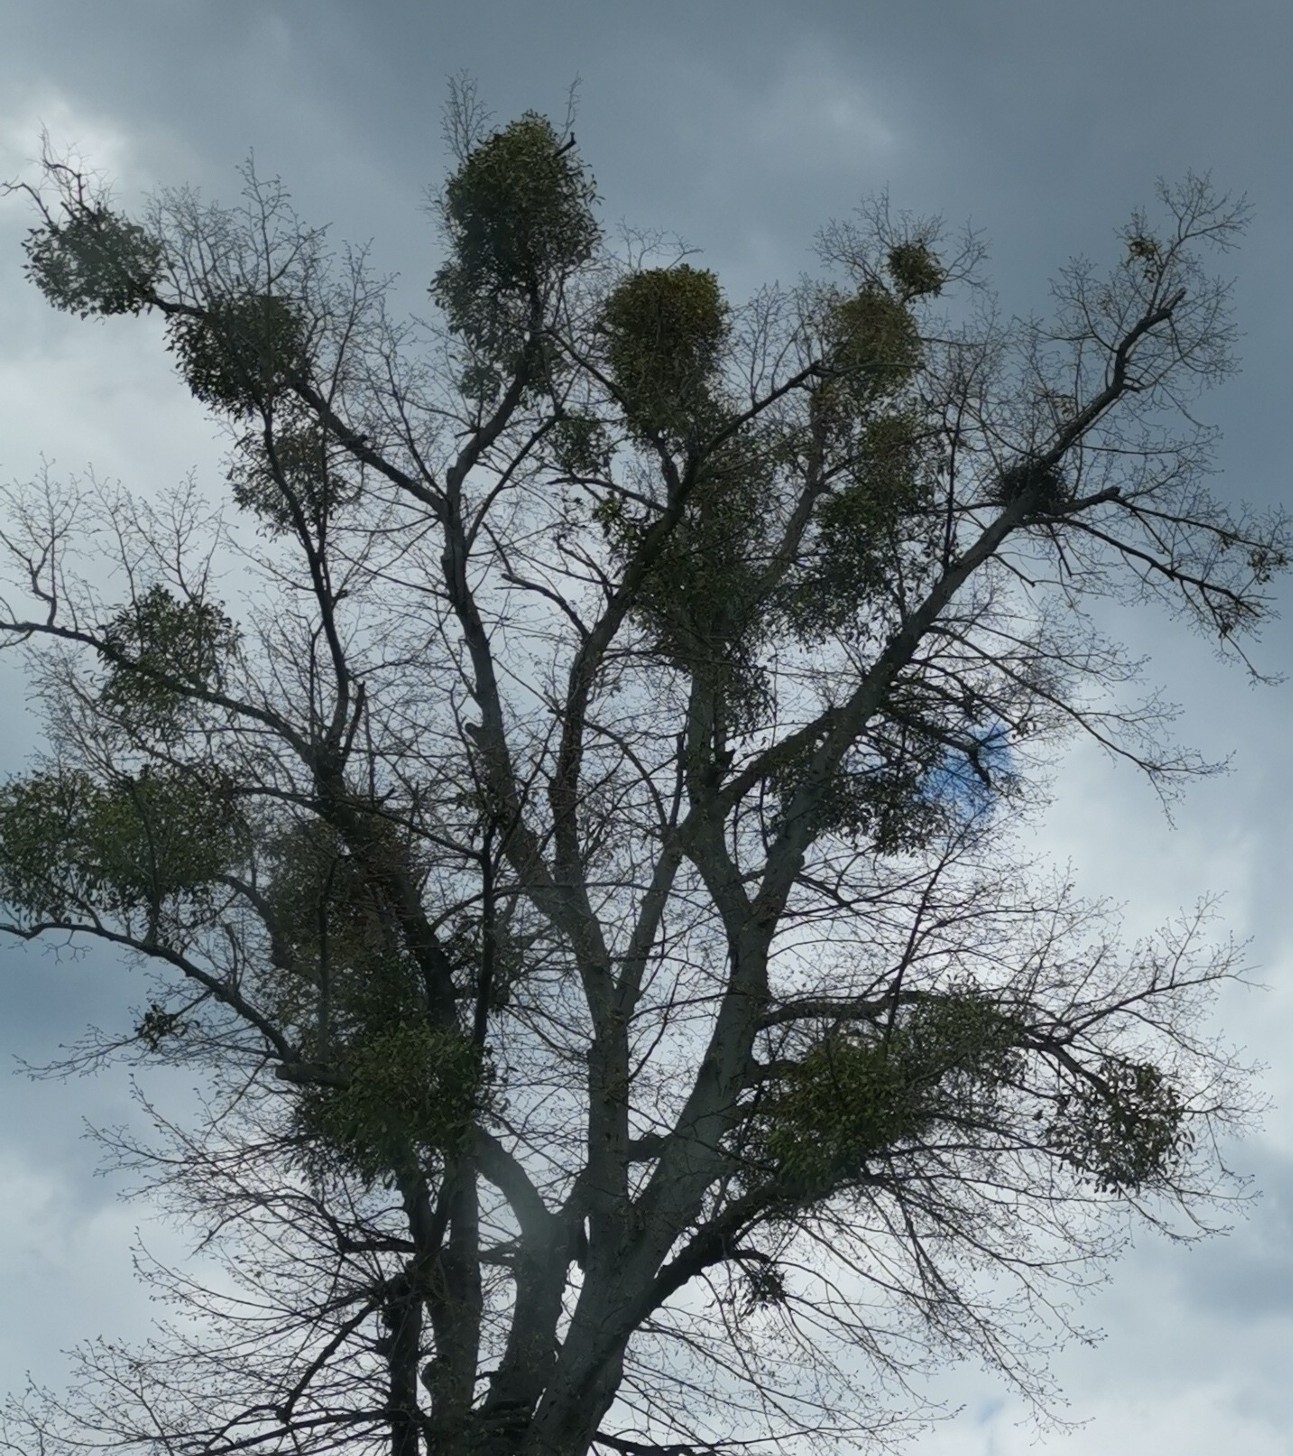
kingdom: Plantae
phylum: Tracheophyta
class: Magnoliopsida
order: Santalales
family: Viscaceae
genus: Viscum
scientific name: Viscum album
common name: Mistletoe
